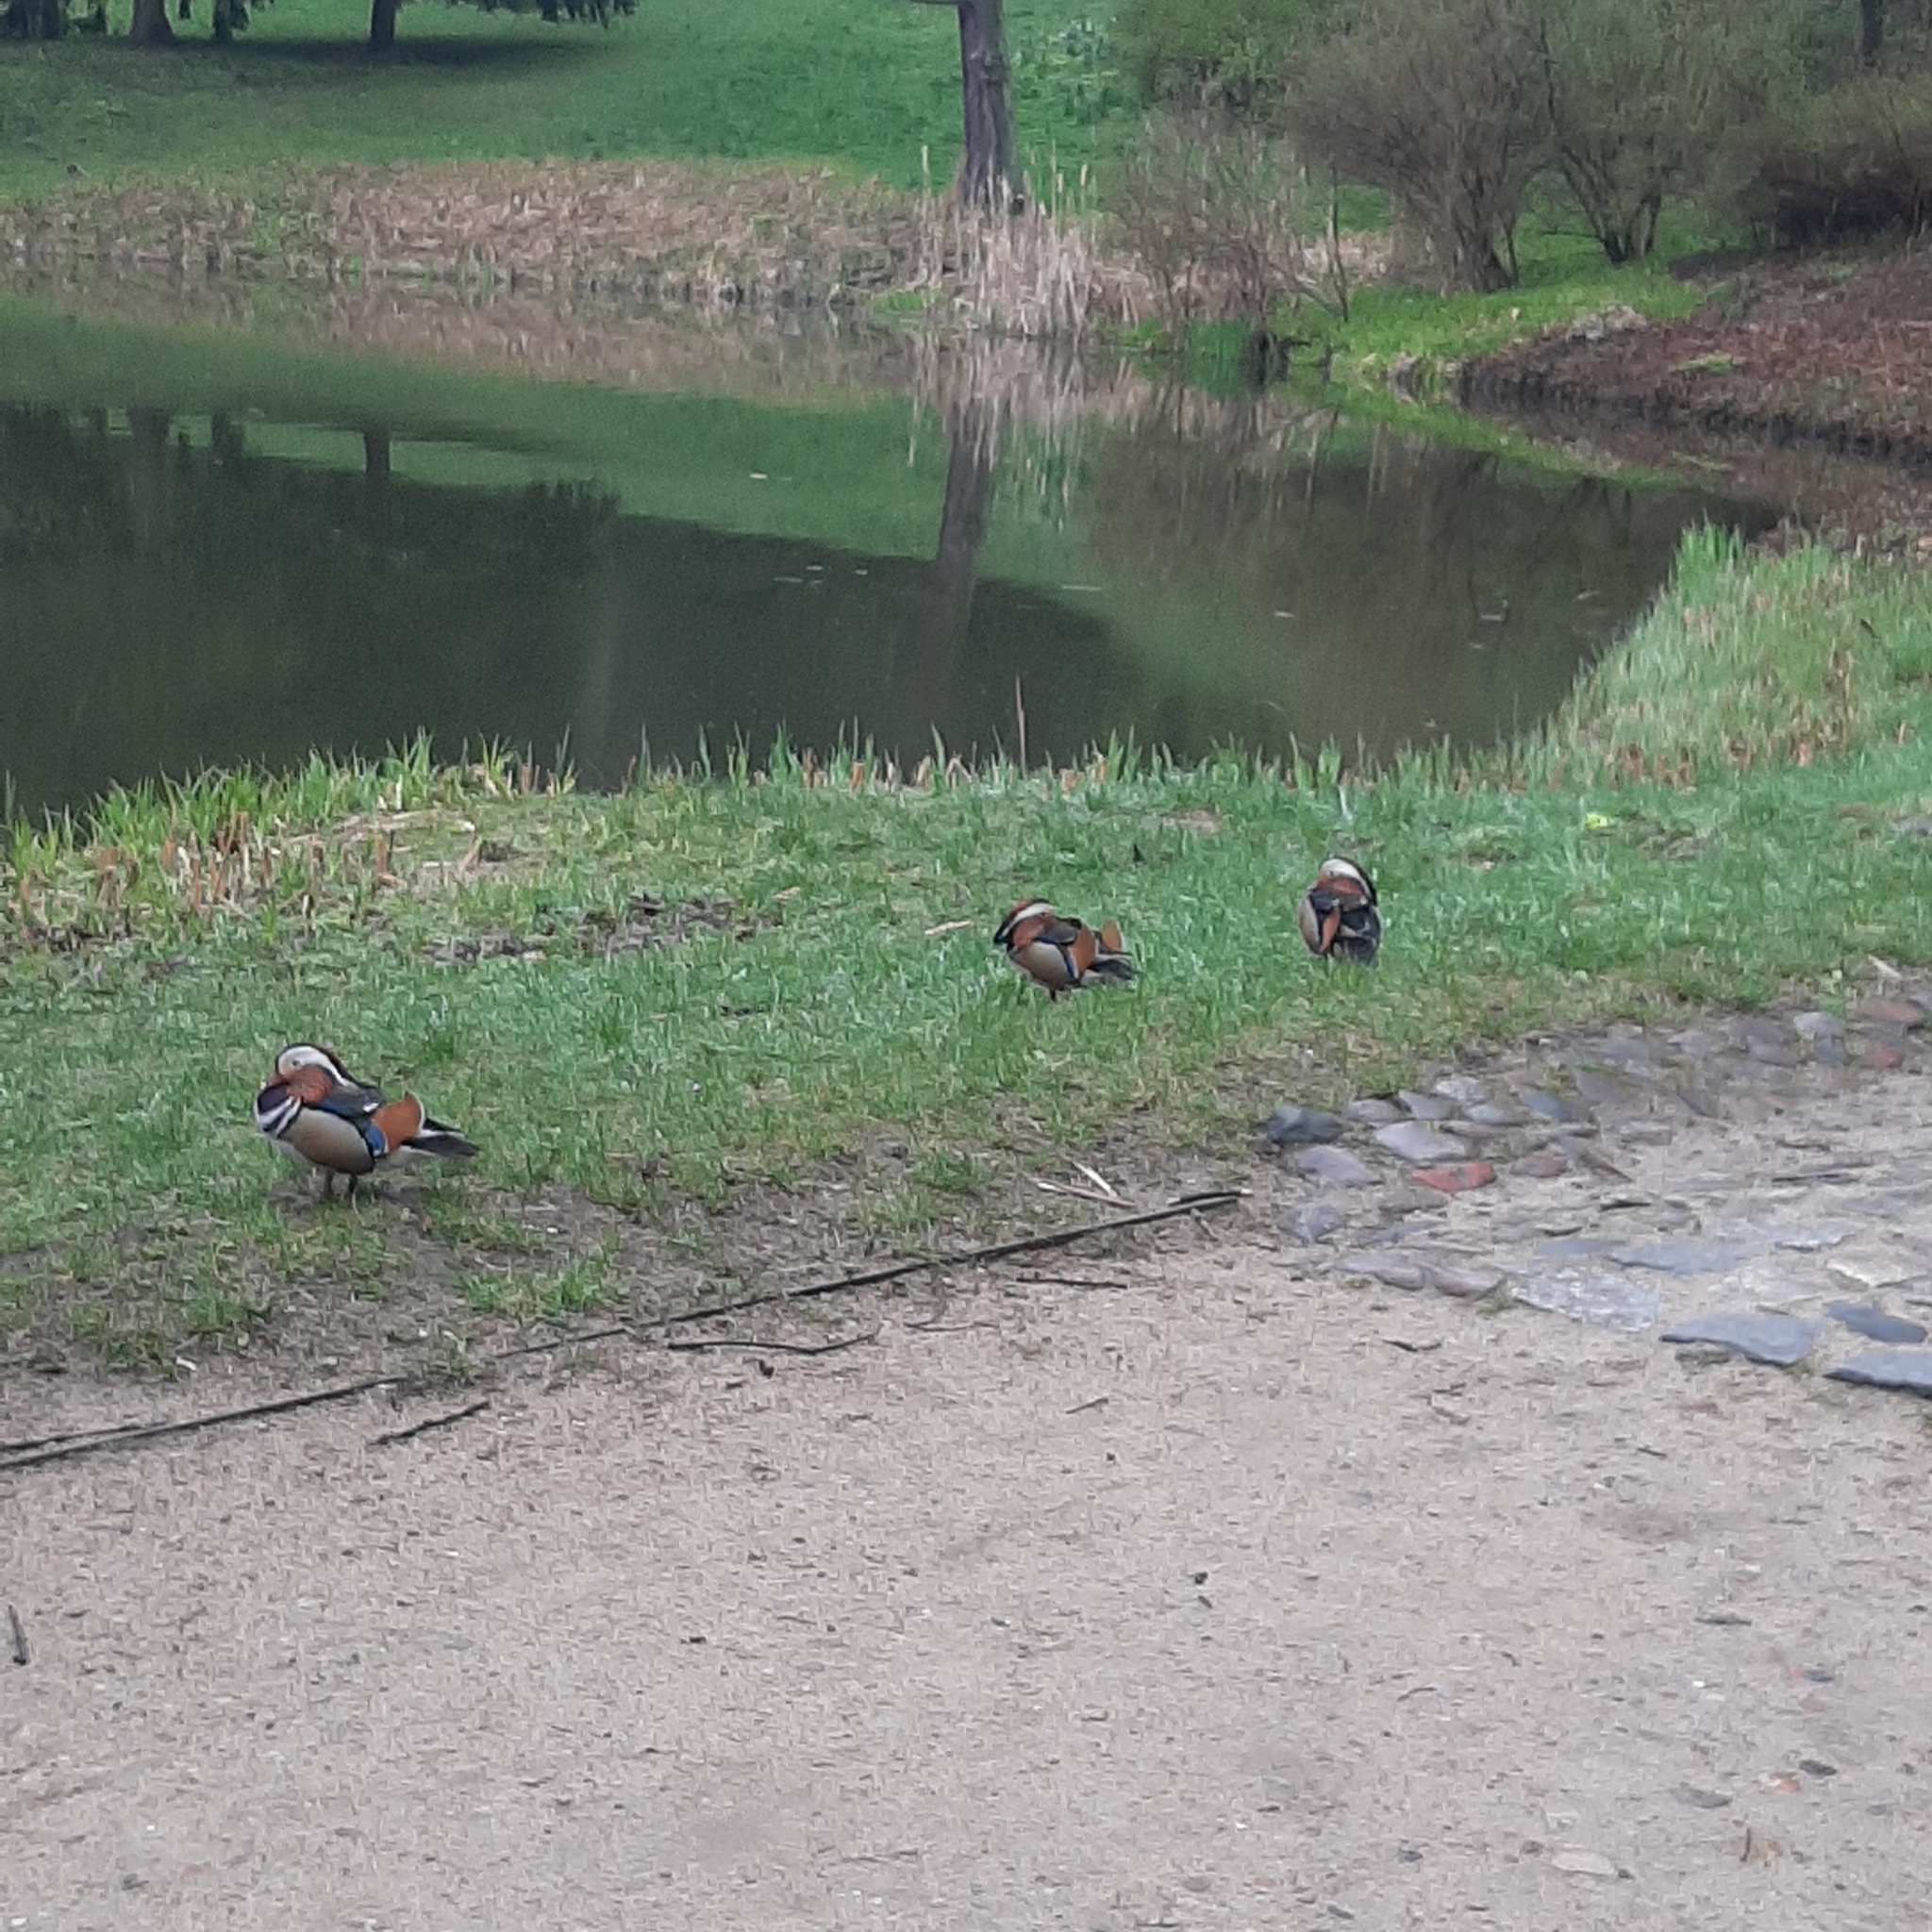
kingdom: Animalia
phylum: Chordata
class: Aves
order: Anseriformes
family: Anatidae
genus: Aix
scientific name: Aix galericulata
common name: Mandarin duck
